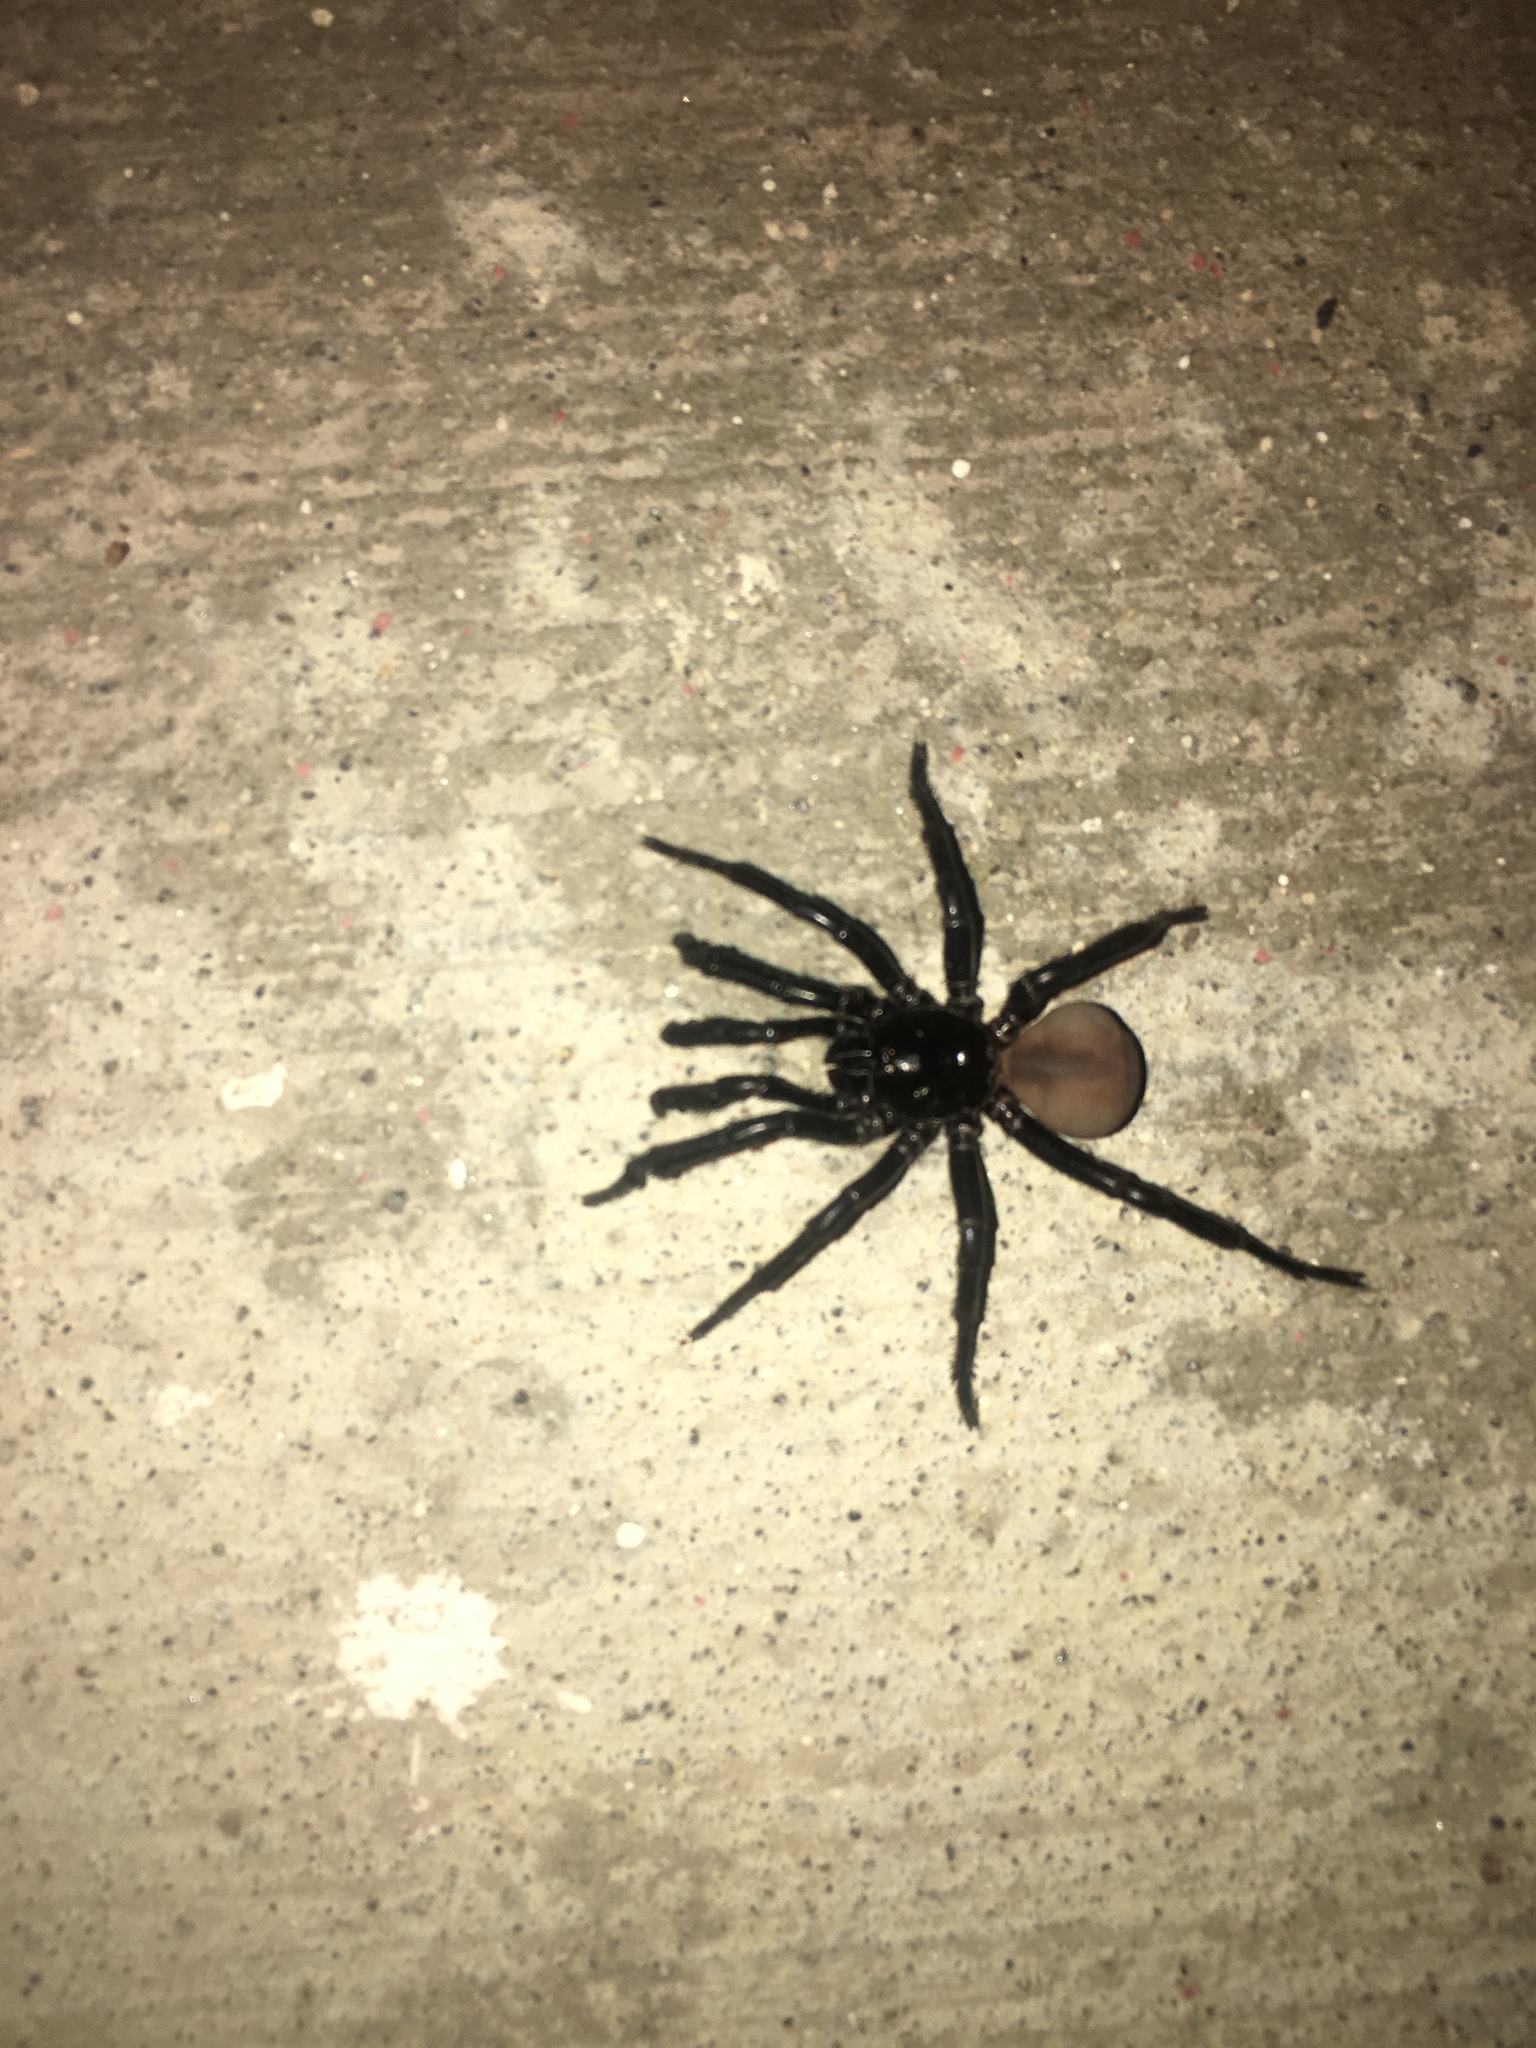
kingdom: Animalia
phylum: Arthropoda
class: Arachnida
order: Araneae
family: Halonoproctidae
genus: Bothriocyrtum
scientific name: Bothriocyrtum californicum
